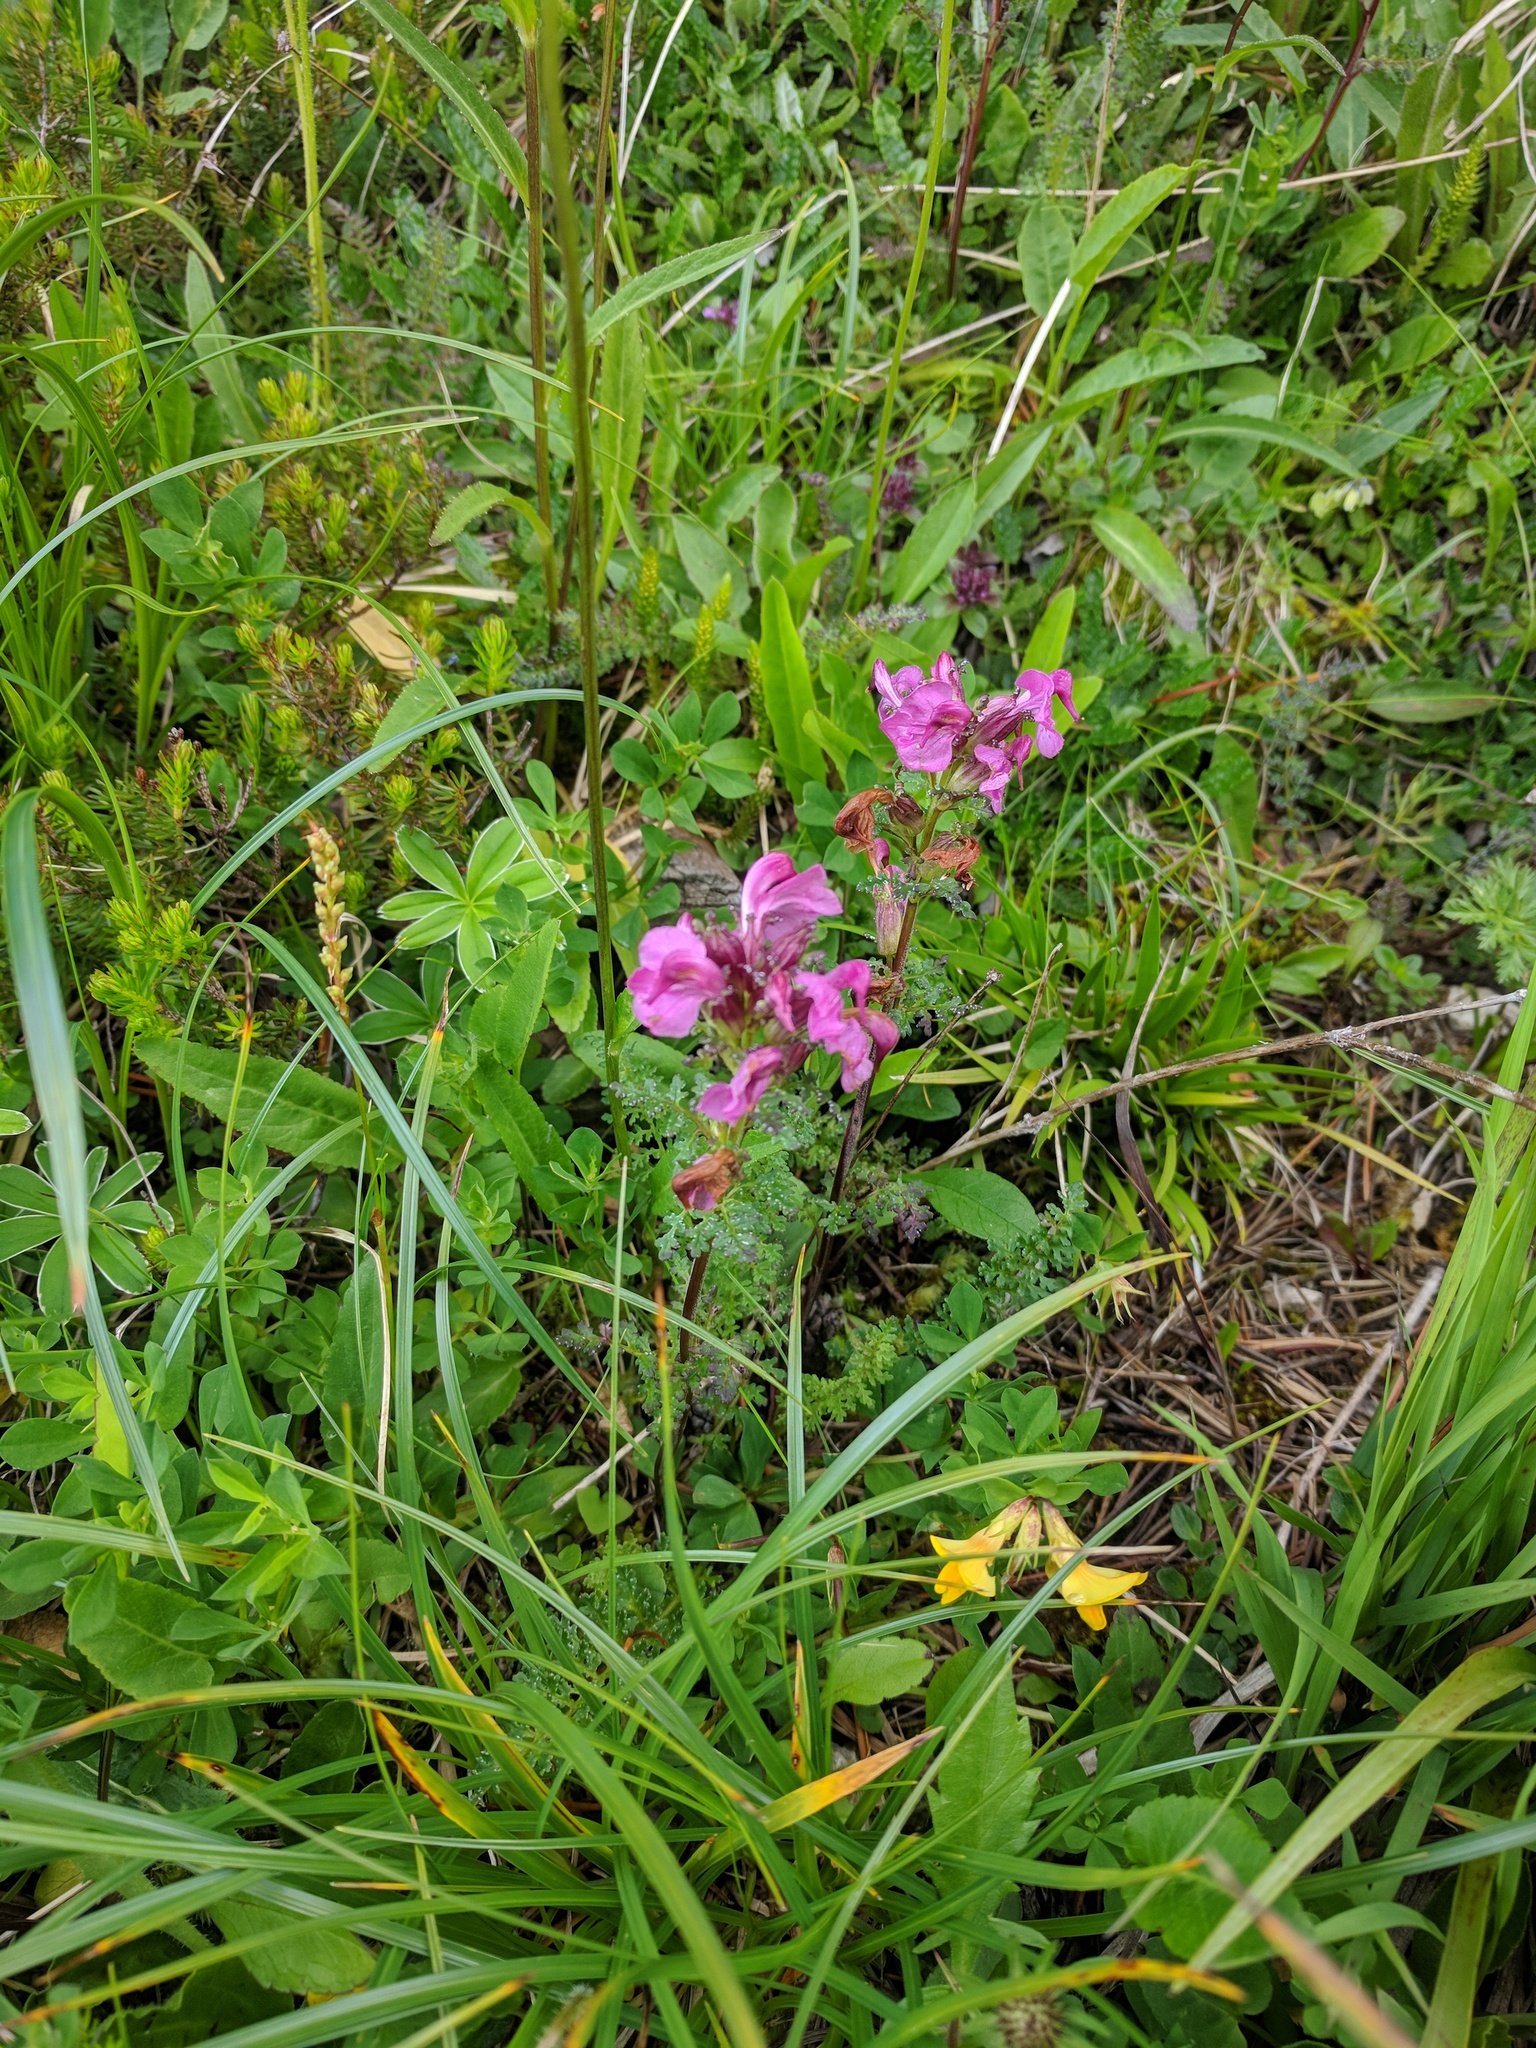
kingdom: Plantae
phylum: Tracheophyta
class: Magnoliopsida
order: Lamiales
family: Orobanchaceae
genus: Pedicularis
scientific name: Pedicularis rostratocapitata
